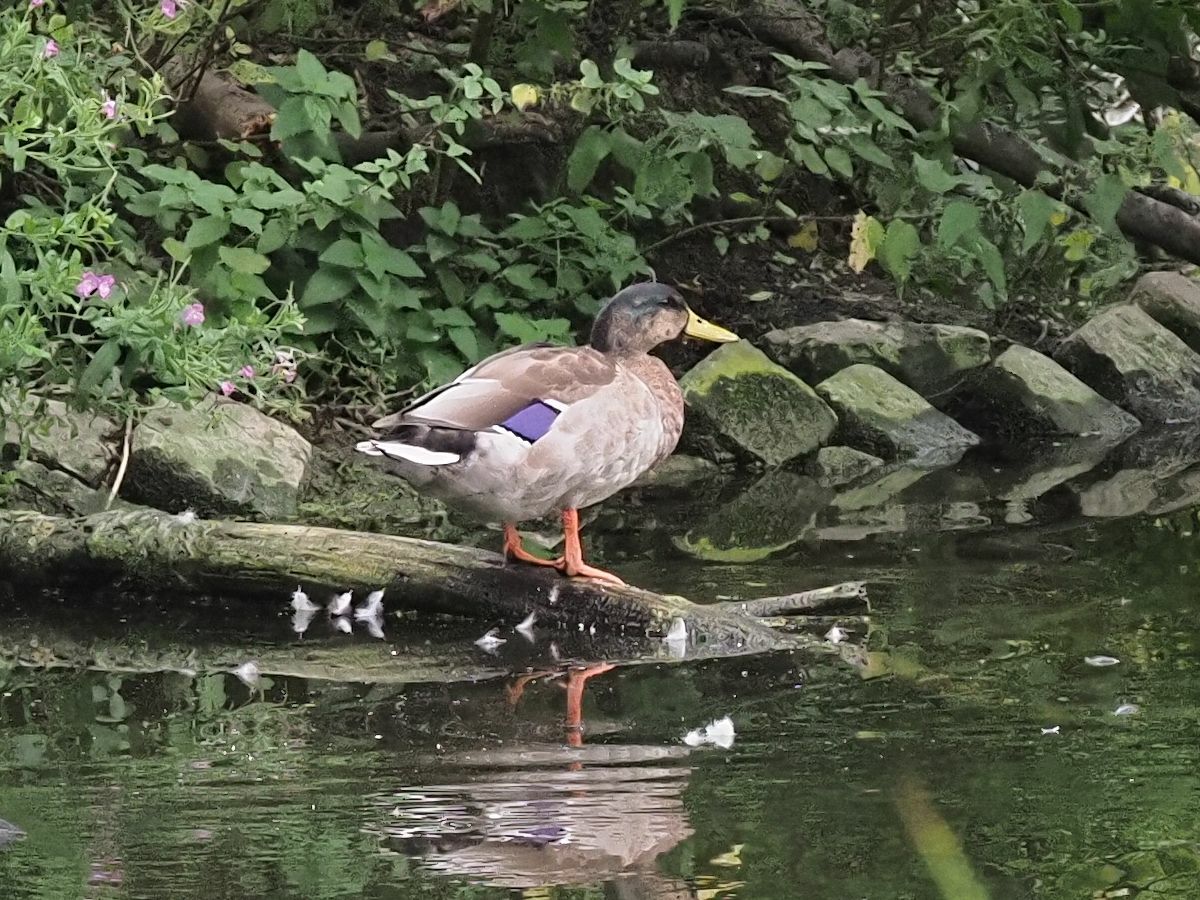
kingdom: Animalia
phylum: Chordata
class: Aves
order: Anseriformes
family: Anatidae
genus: Anas
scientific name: Anas platyrhynchos
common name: Mallard
